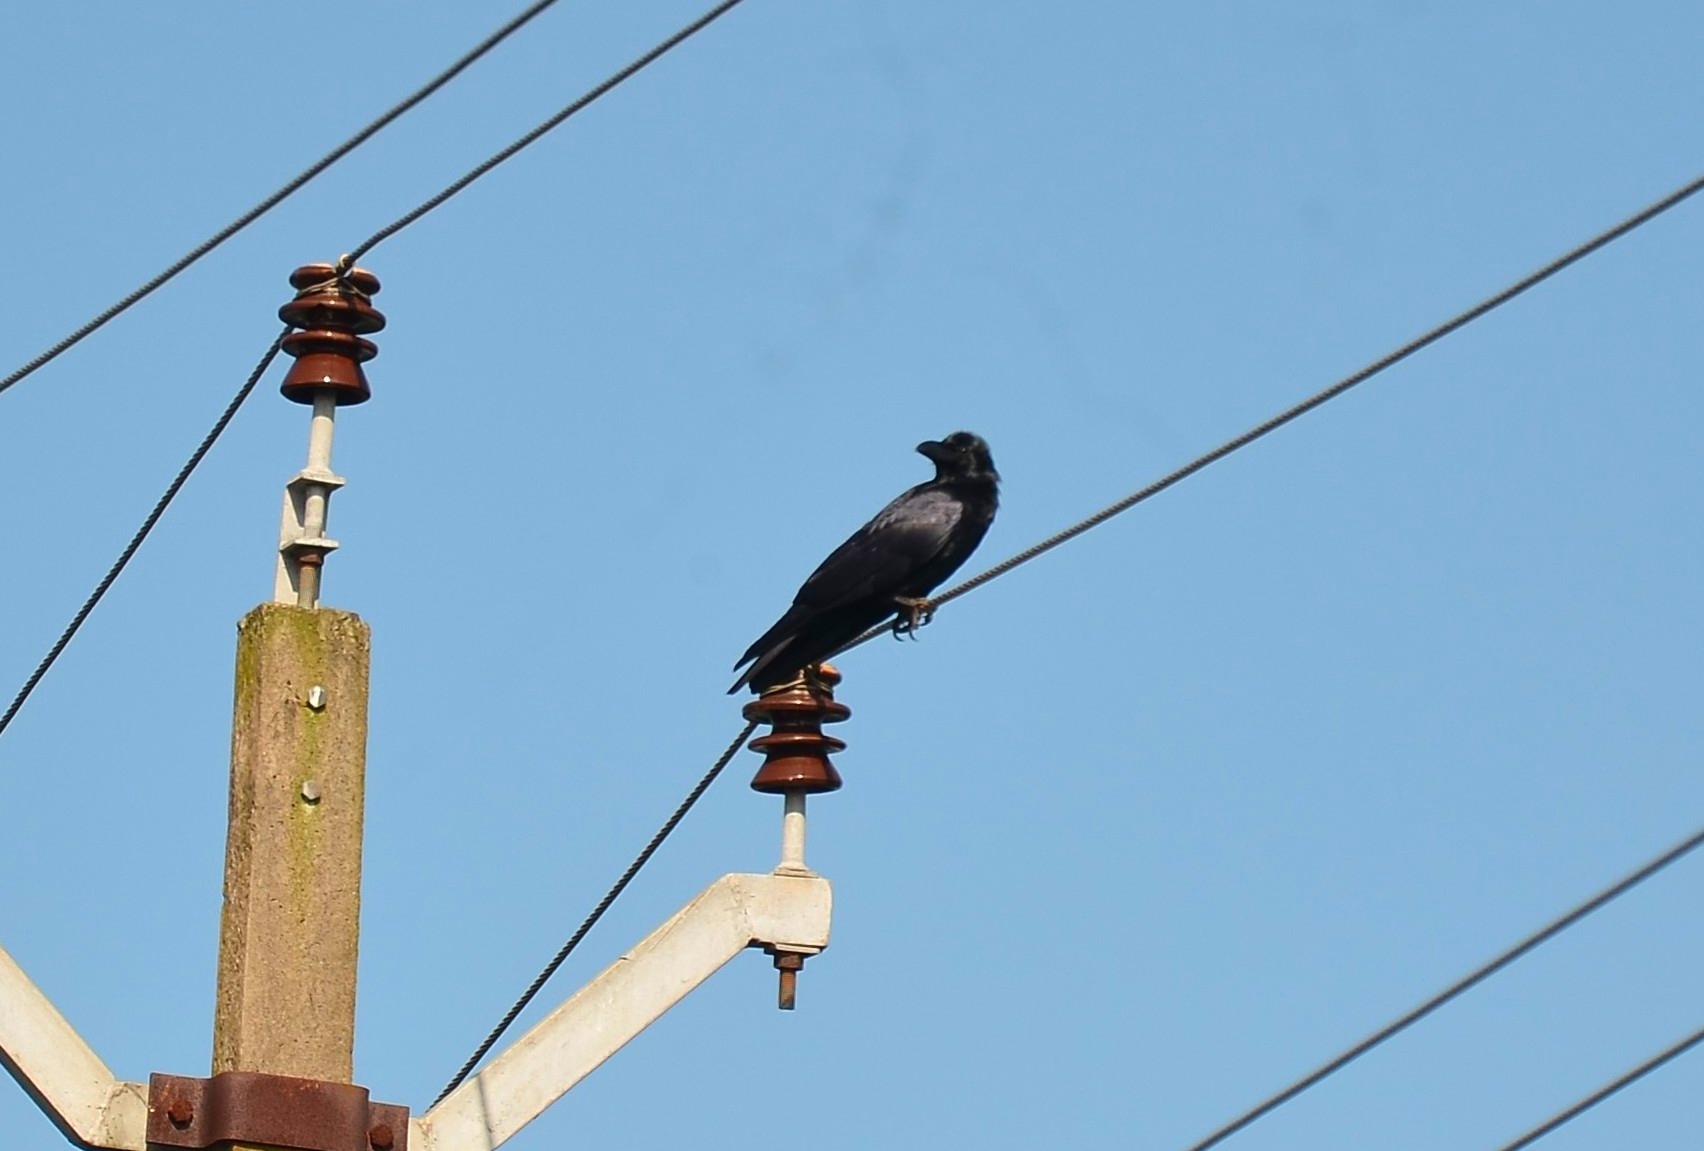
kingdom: Animalia
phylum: Chordata
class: Aves
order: Passeriformes
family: Corvidae
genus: Corvus
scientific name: Corvus macrorhynchos
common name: Large-billed crow
